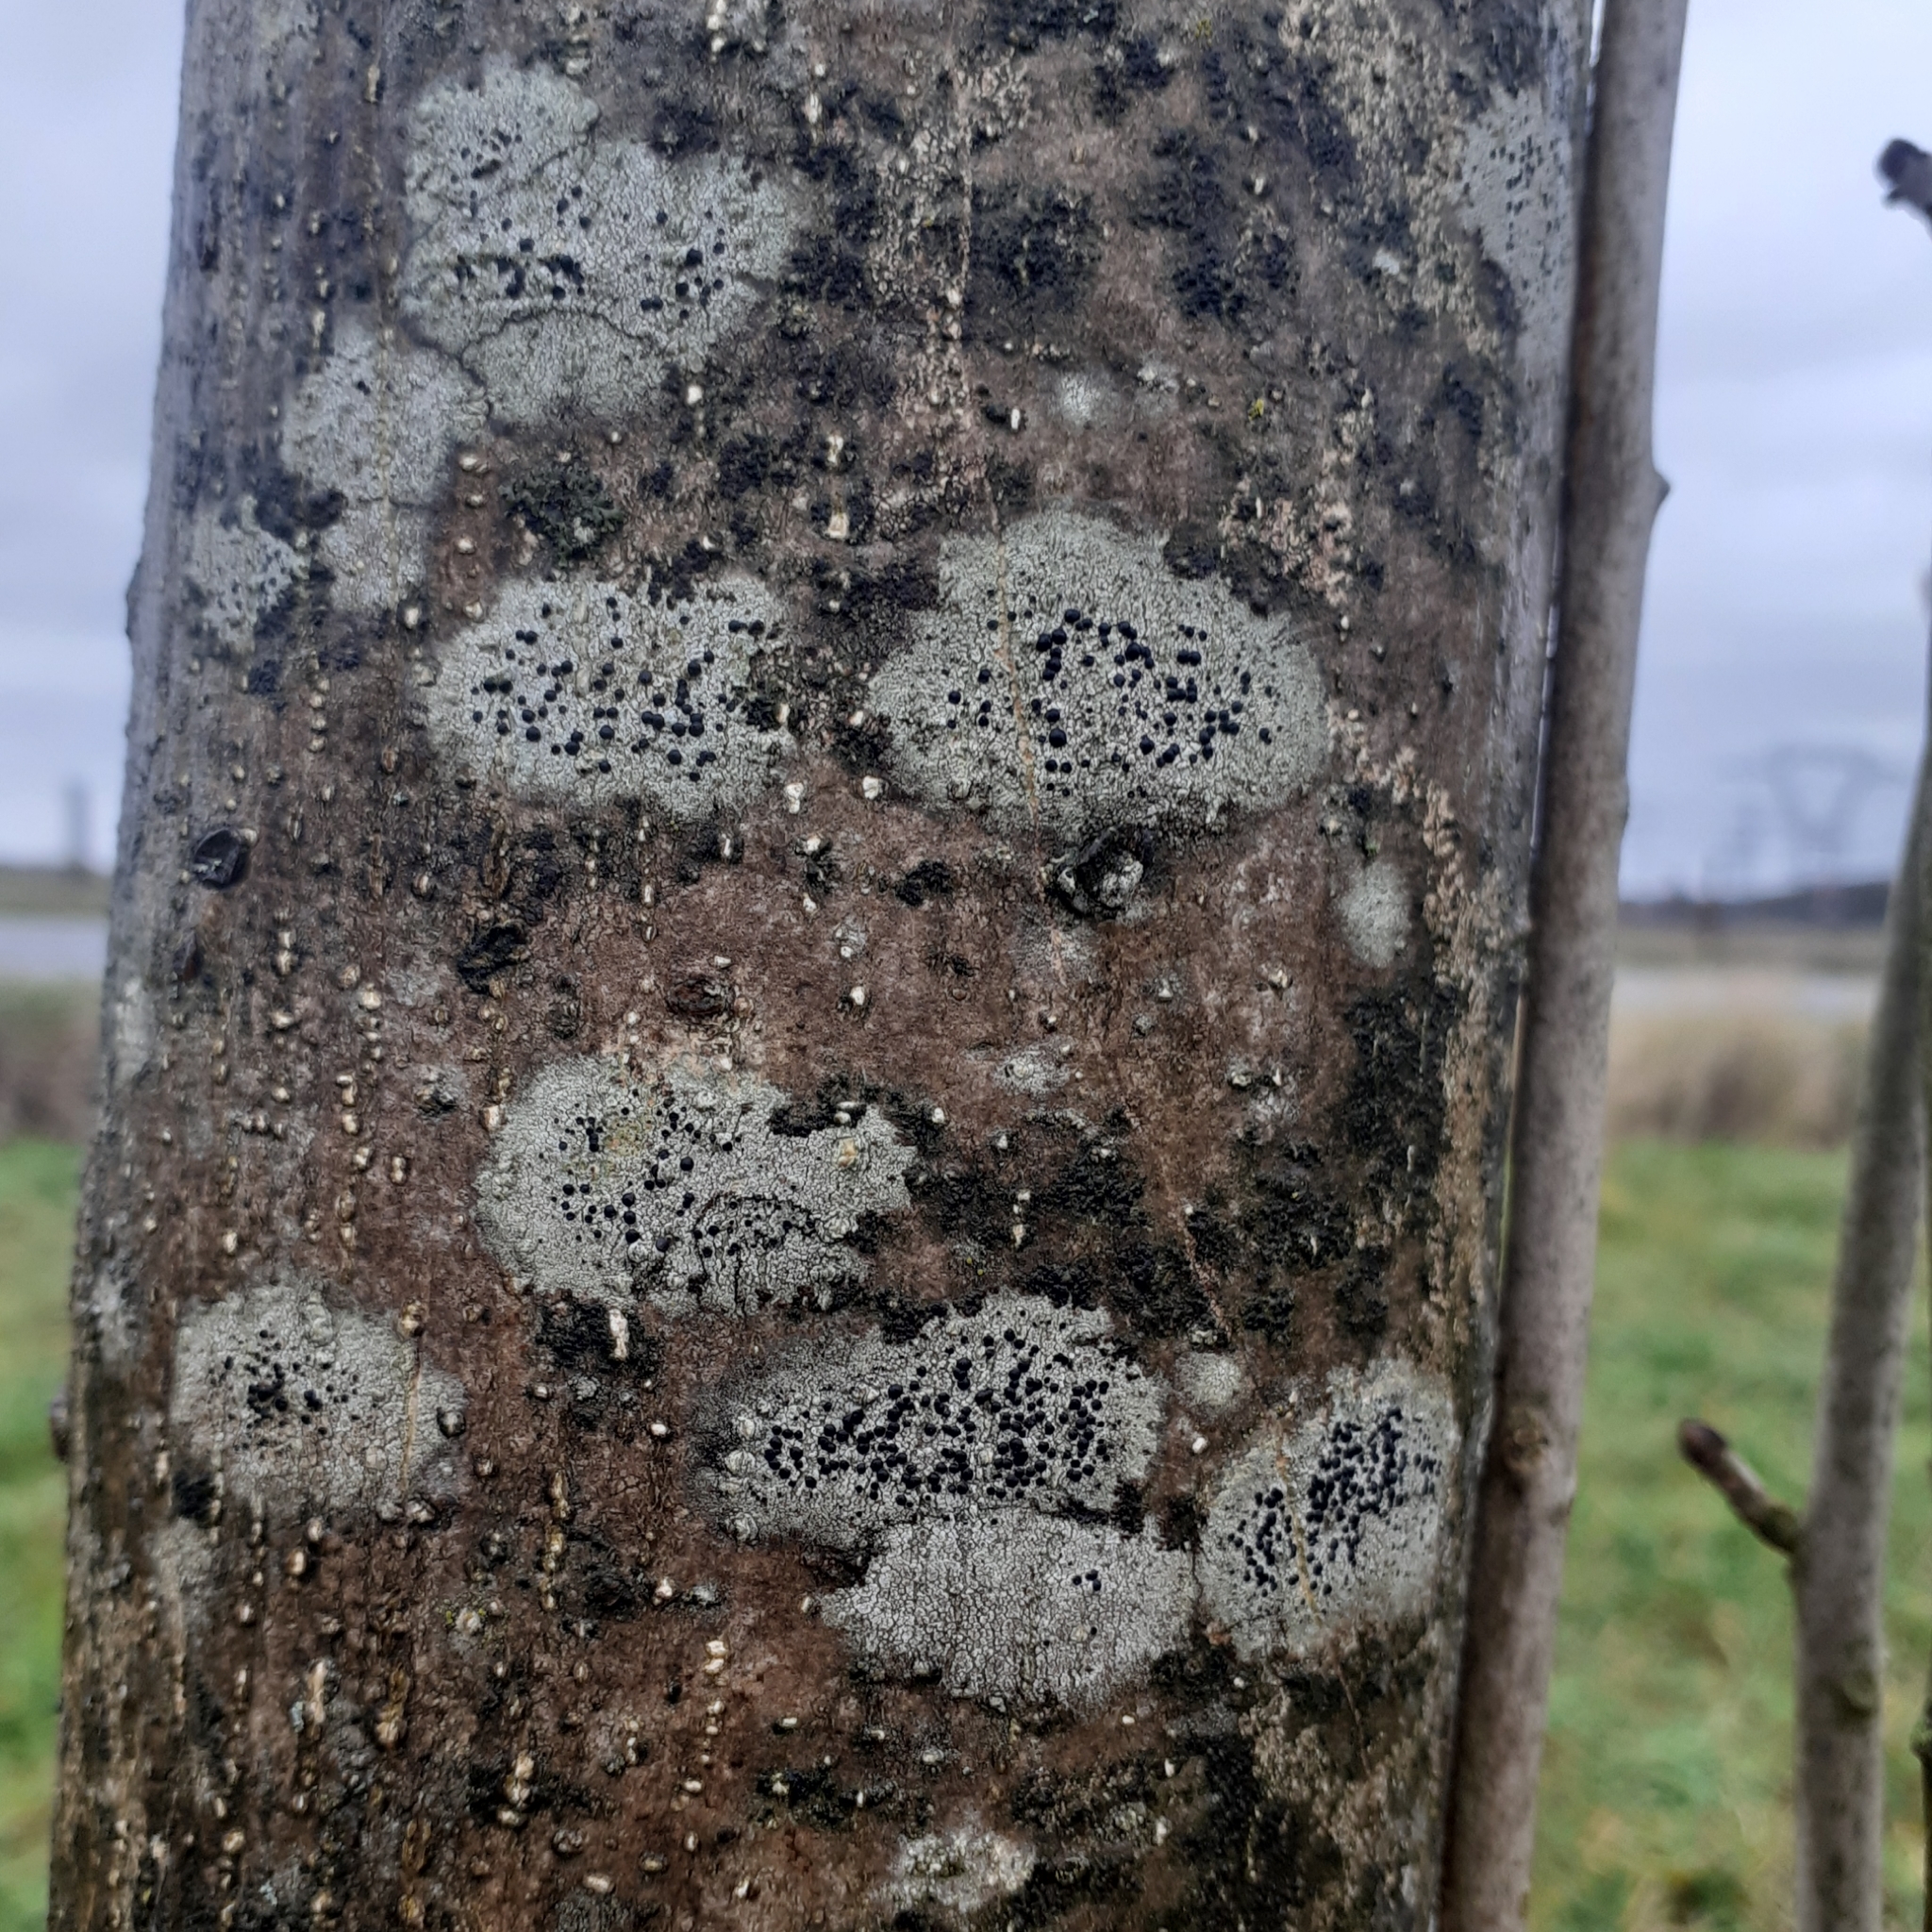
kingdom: Fungi
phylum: Ascomycota
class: Lecanoromycetes
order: Lecanorales
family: Lecanoraceae
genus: Lecidella
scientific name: Lecidella elaeochroma
